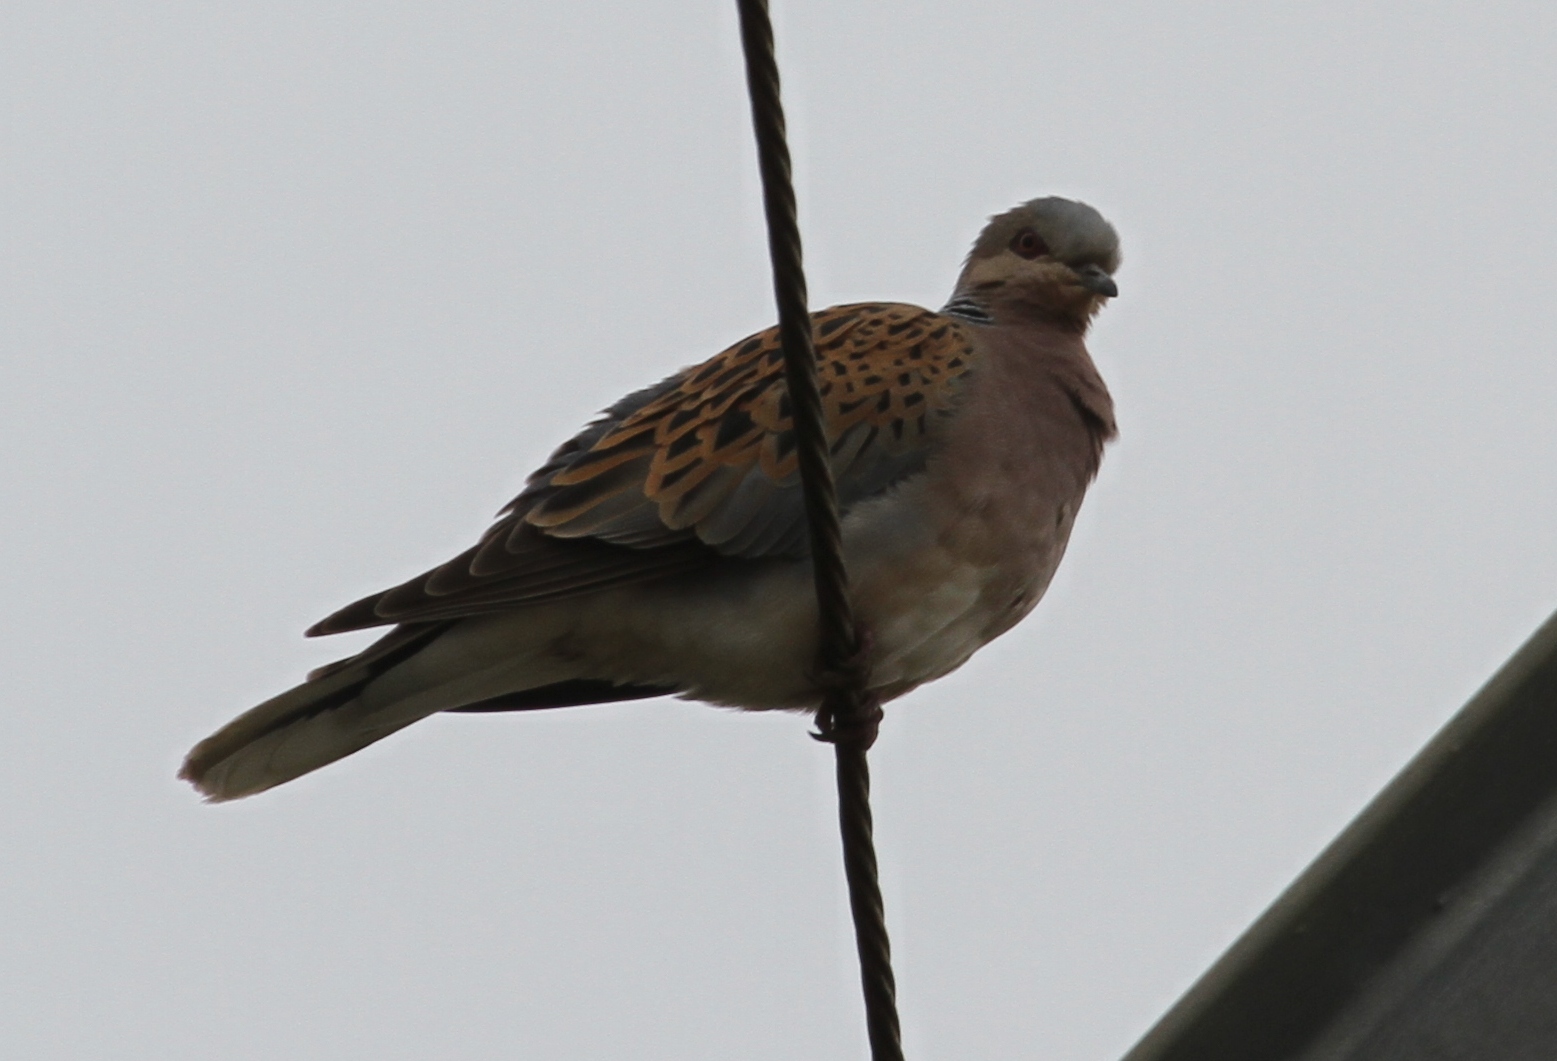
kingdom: Animalia
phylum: Chordata
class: Aves
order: Columbiformes
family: Columbidae
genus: Streptopelia
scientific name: Streptopelia turtur
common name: European turtle dove
